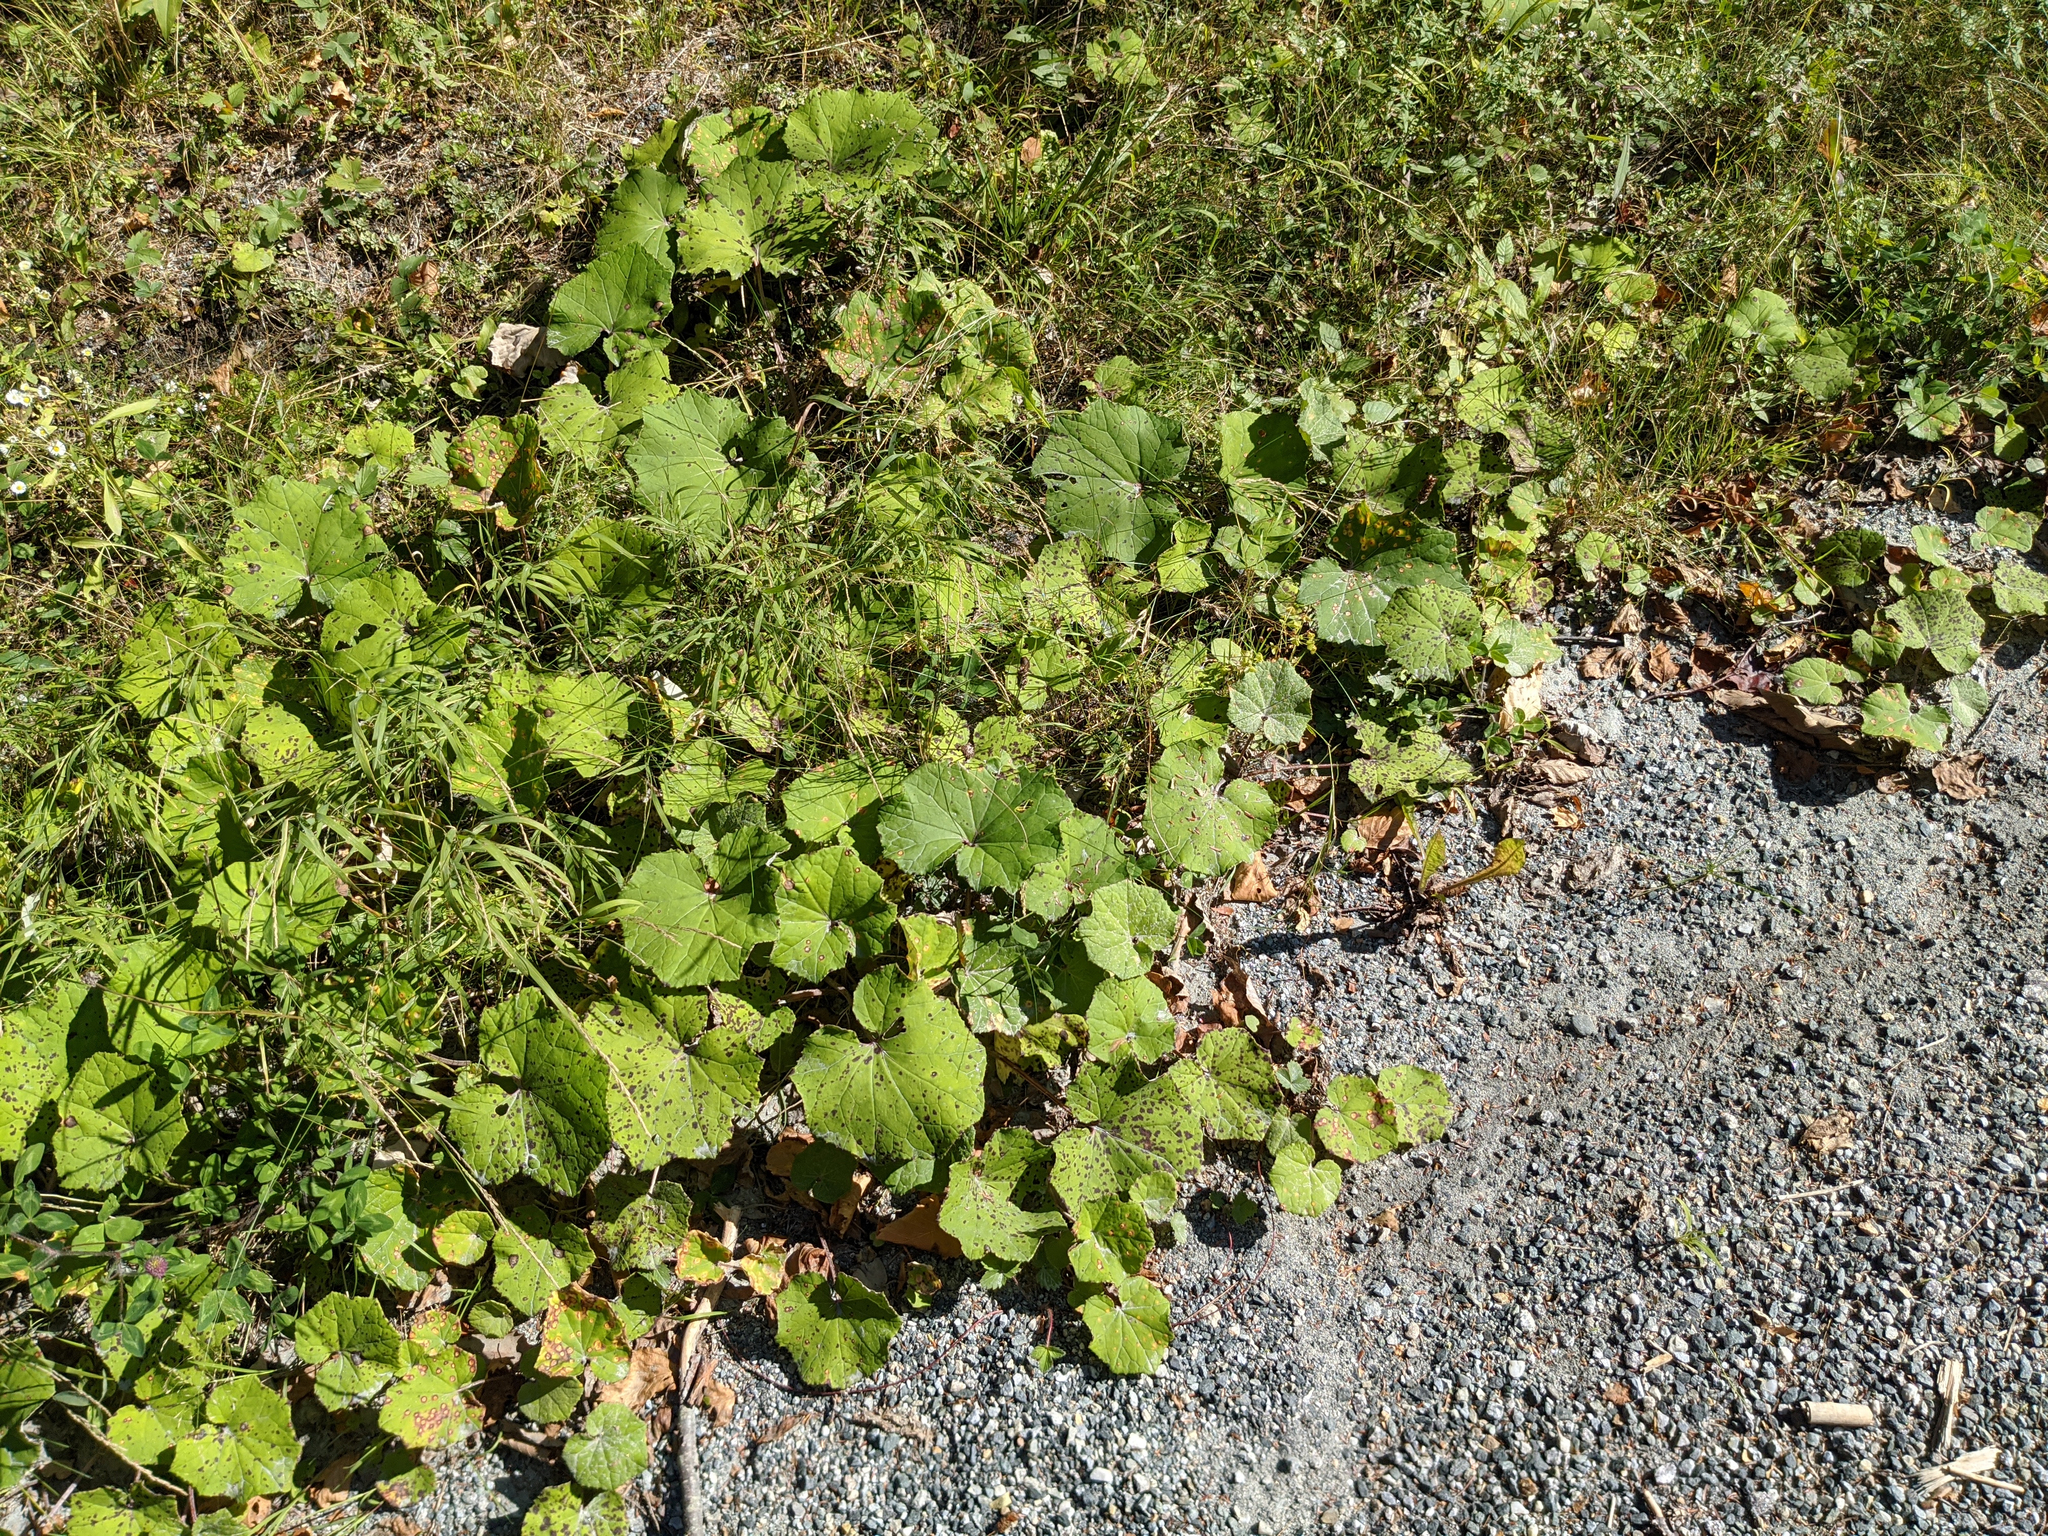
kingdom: Plantae
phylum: Tracheophyta
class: Magnoliopsida
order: Asterales
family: Asteraceae
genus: Tussilago
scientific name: Tussilago farfara
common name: Coltsfoot
